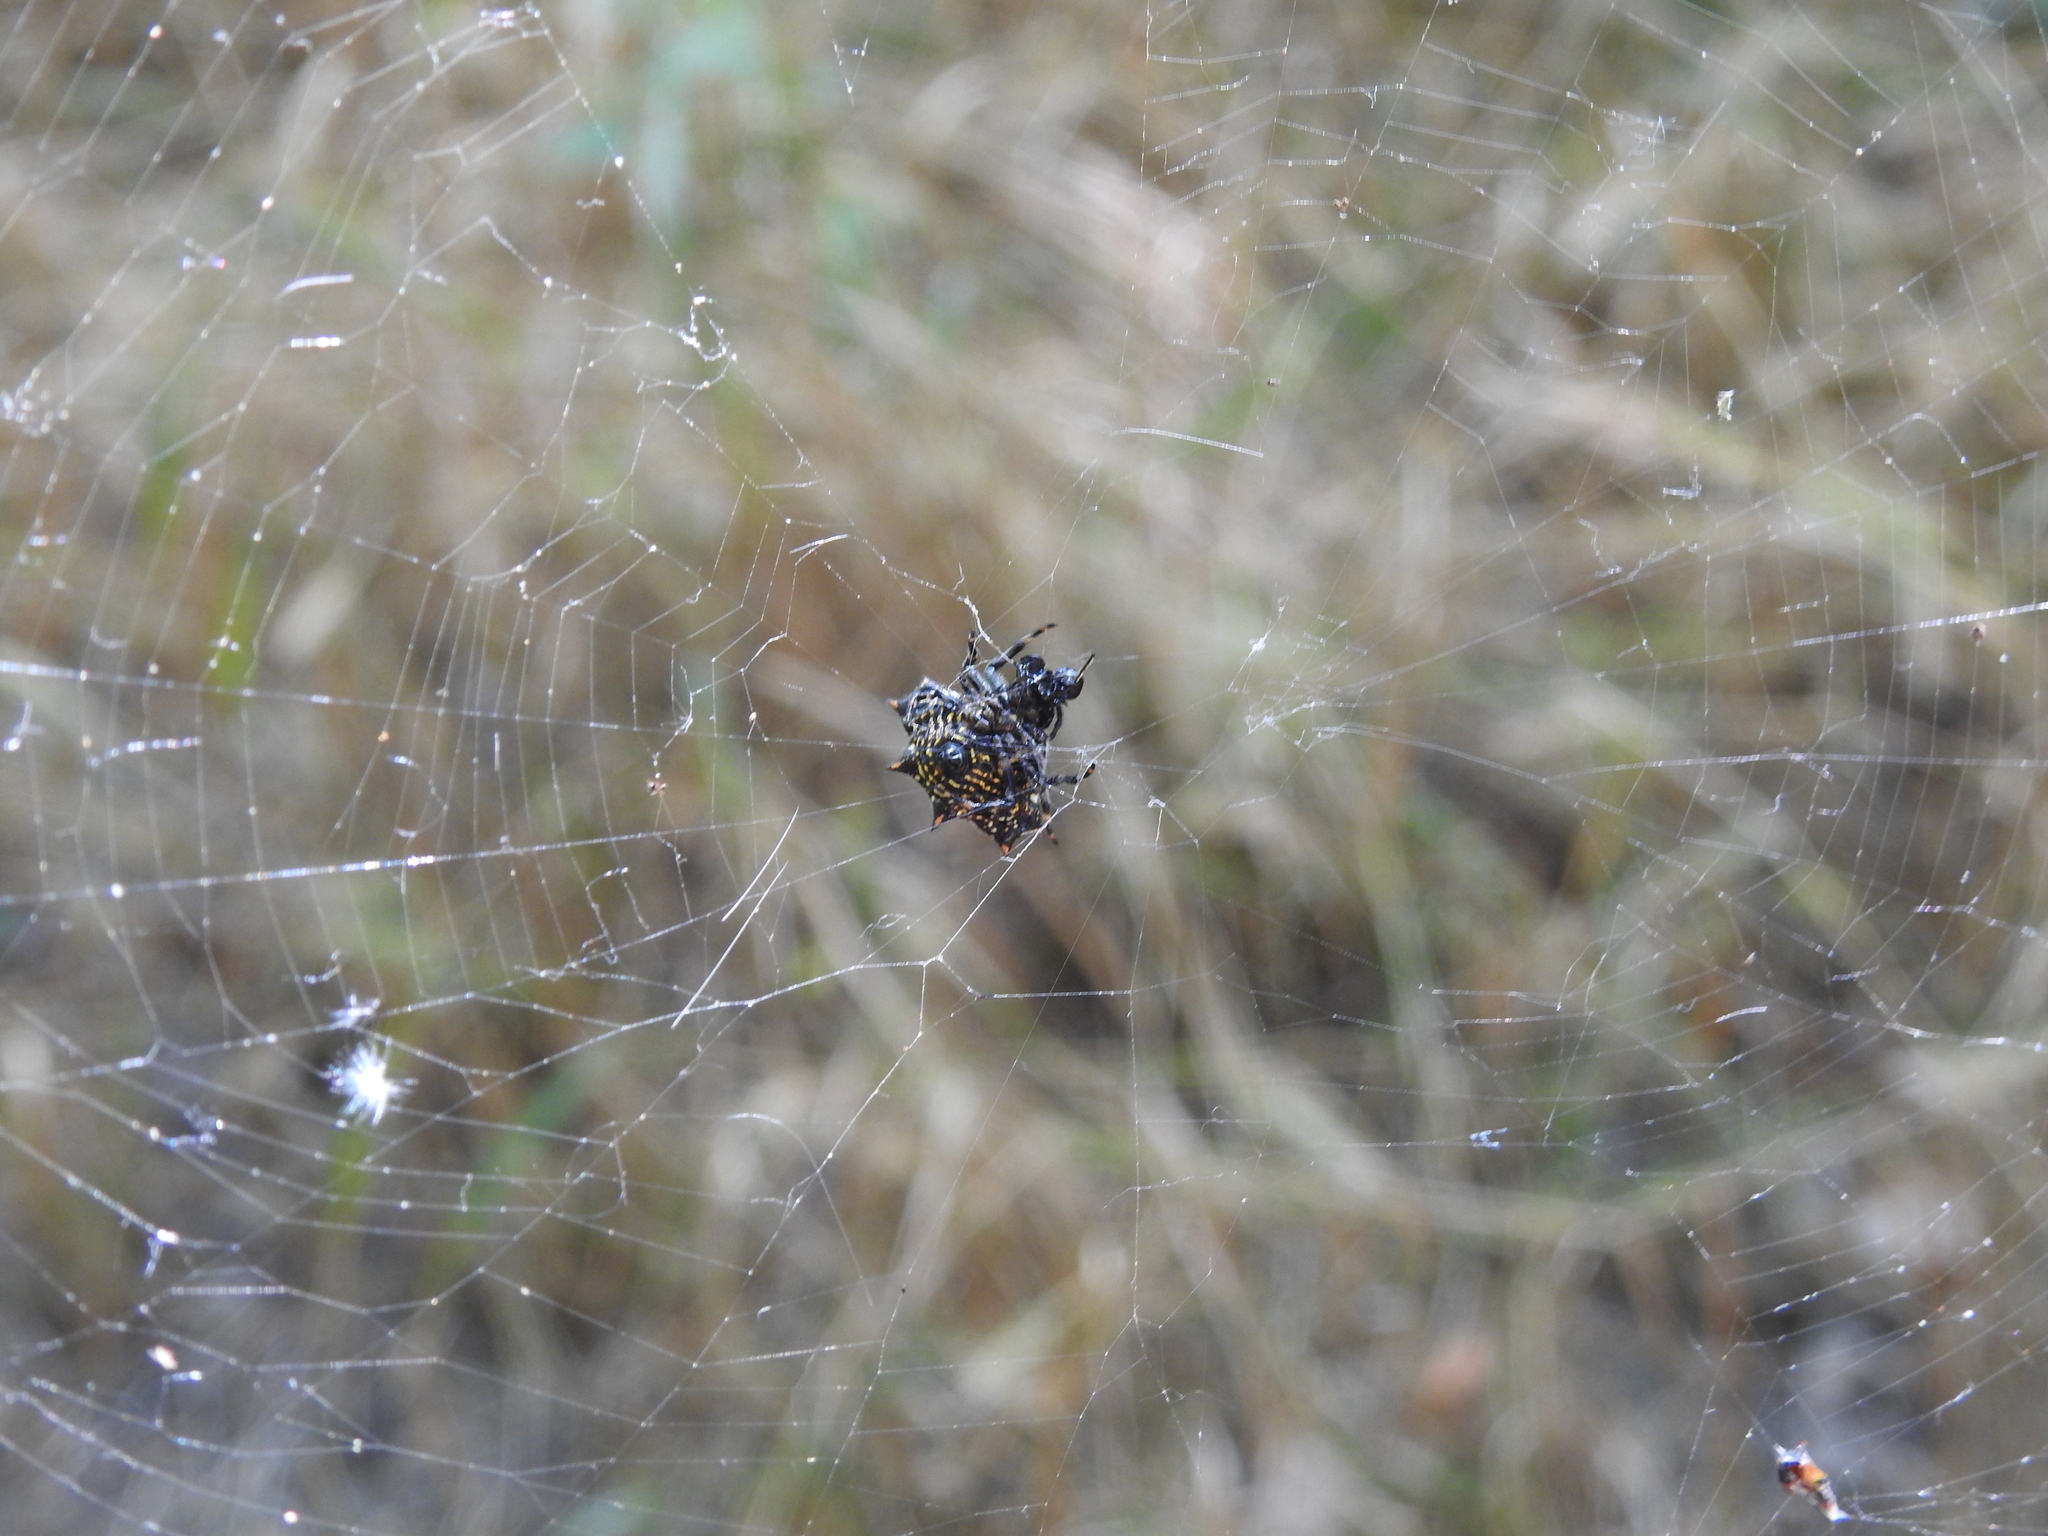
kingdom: Animalia
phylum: Arthropoda
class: Arachnida
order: Araneae
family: Araneidae
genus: Gasteracantha
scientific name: Gasteracantha cancriformis
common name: Orb weavers
